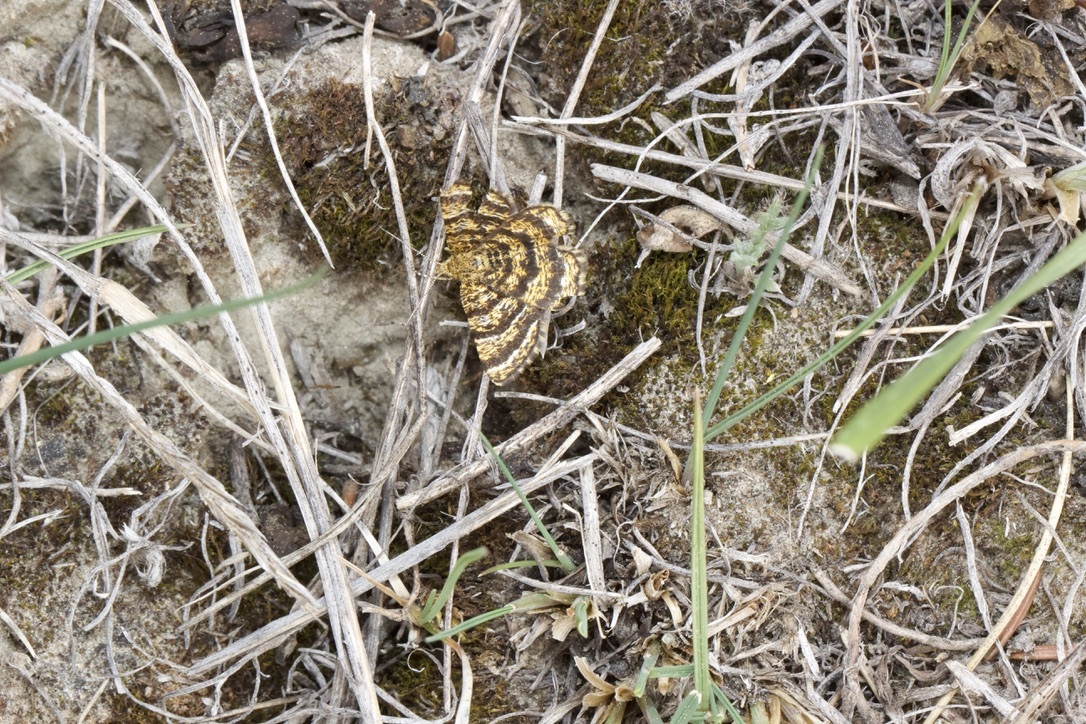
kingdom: Animalia
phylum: Arthropoda
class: Insecta
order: Lepidoptera
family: Geometridae
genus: Macaria
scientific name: Macaria truncataria
